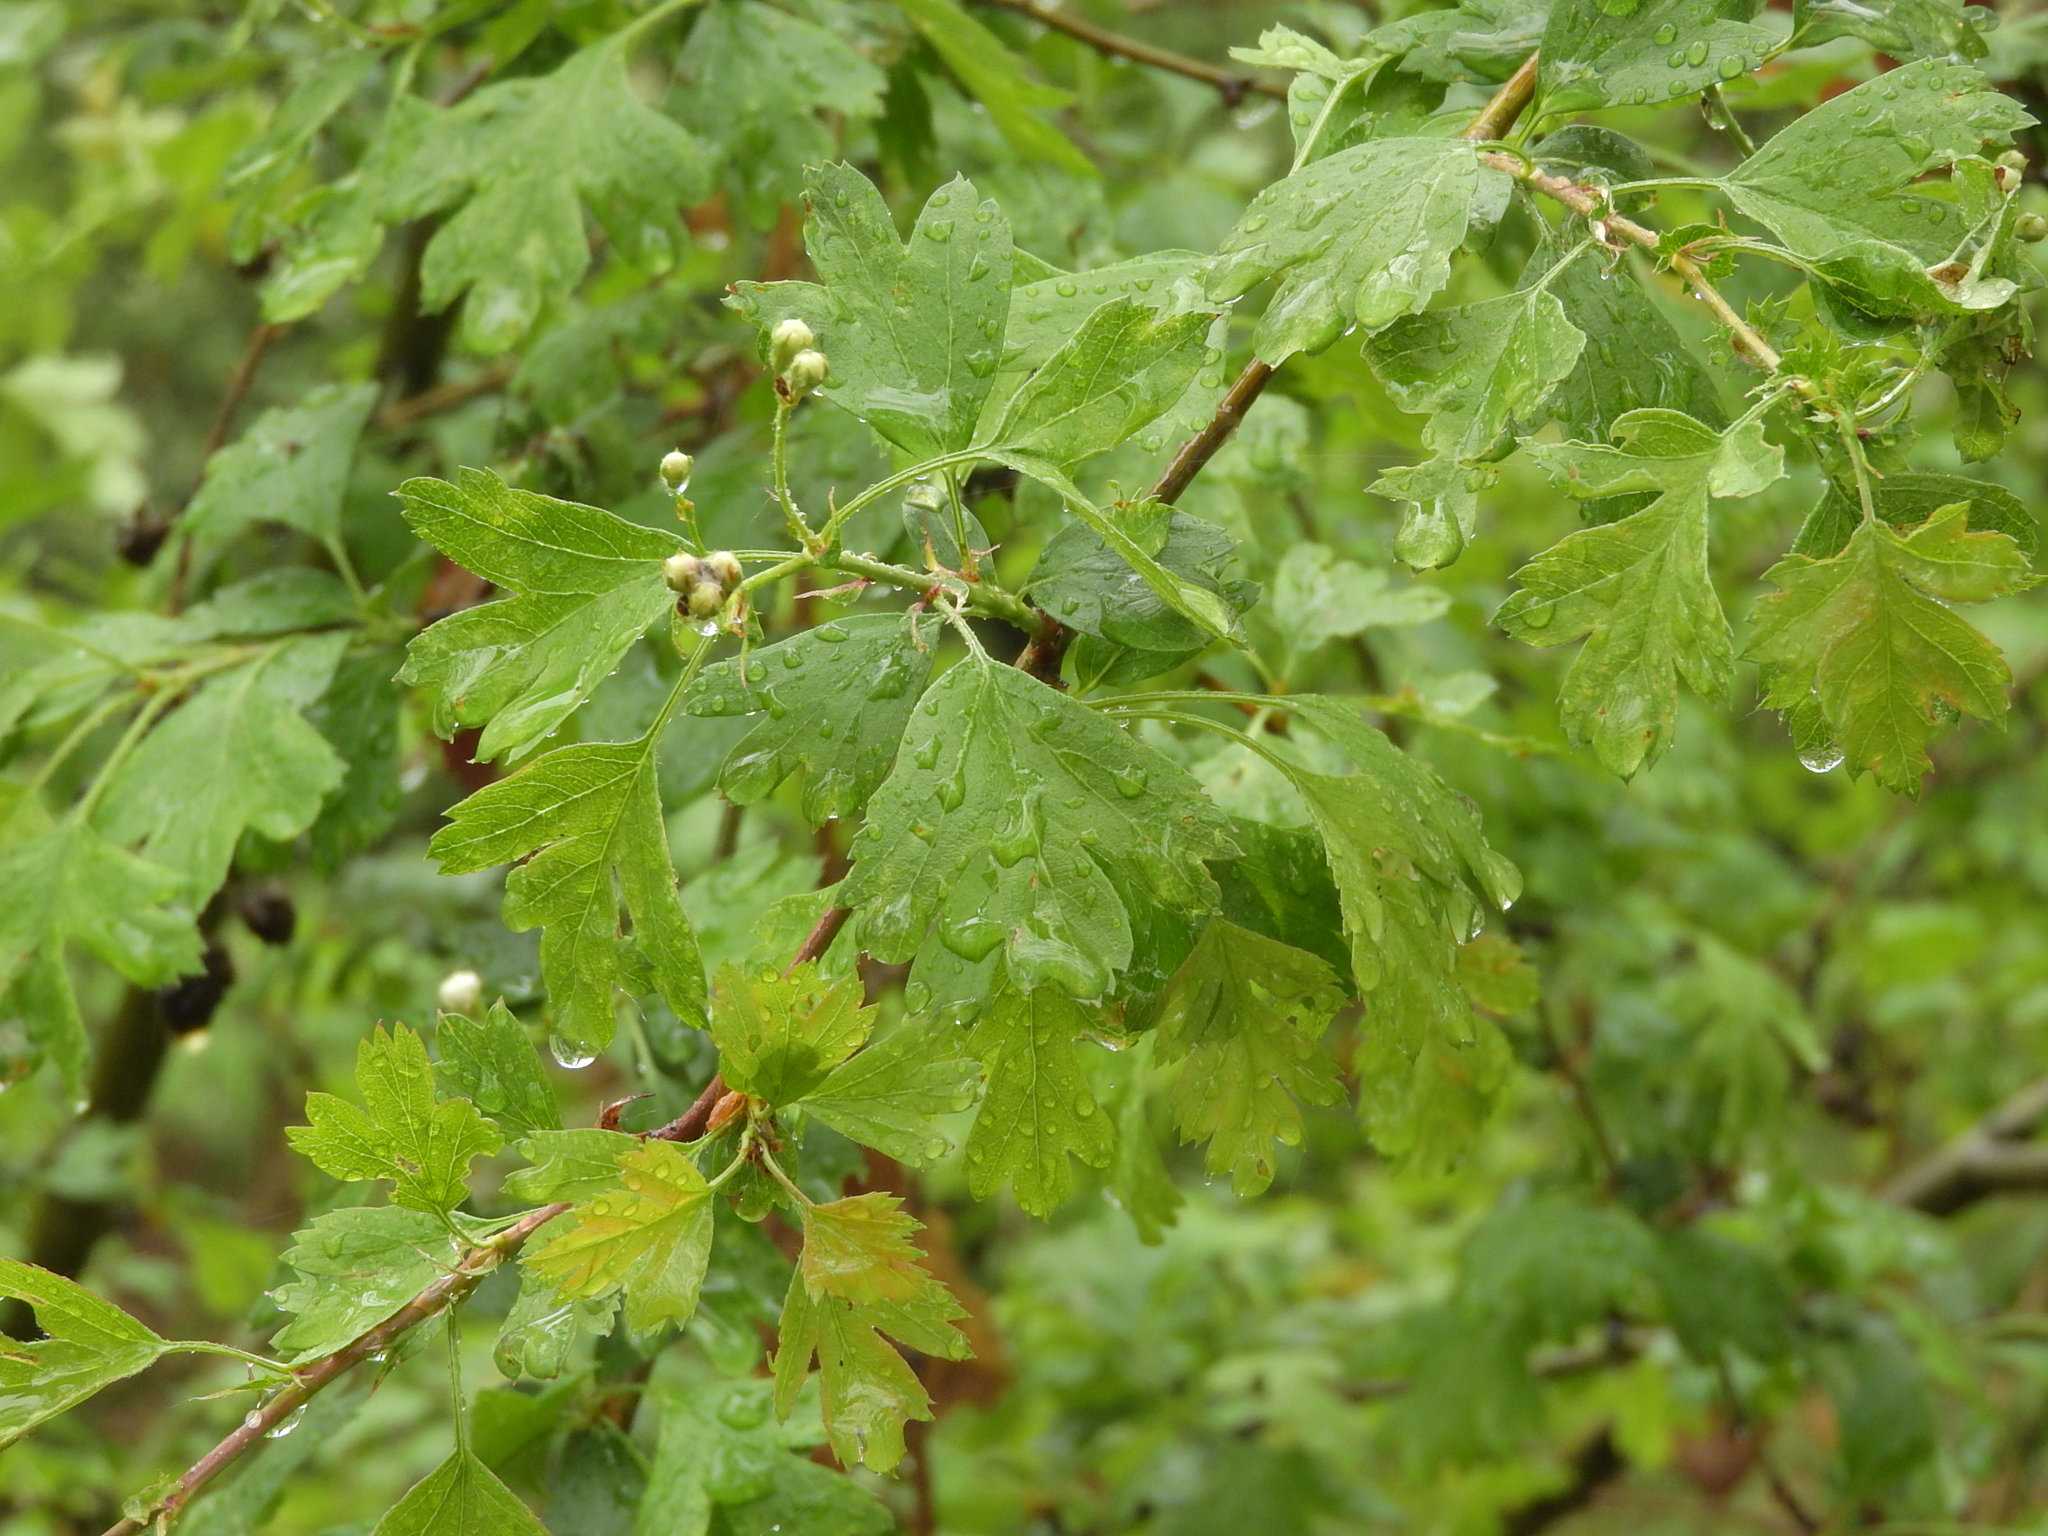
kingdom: Plantae
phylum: Tracheophyta
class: Magnoliopsida
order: Fagales
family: Fagaceae
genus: Quercus
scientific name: Quercus petraea
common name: Sessile oak
